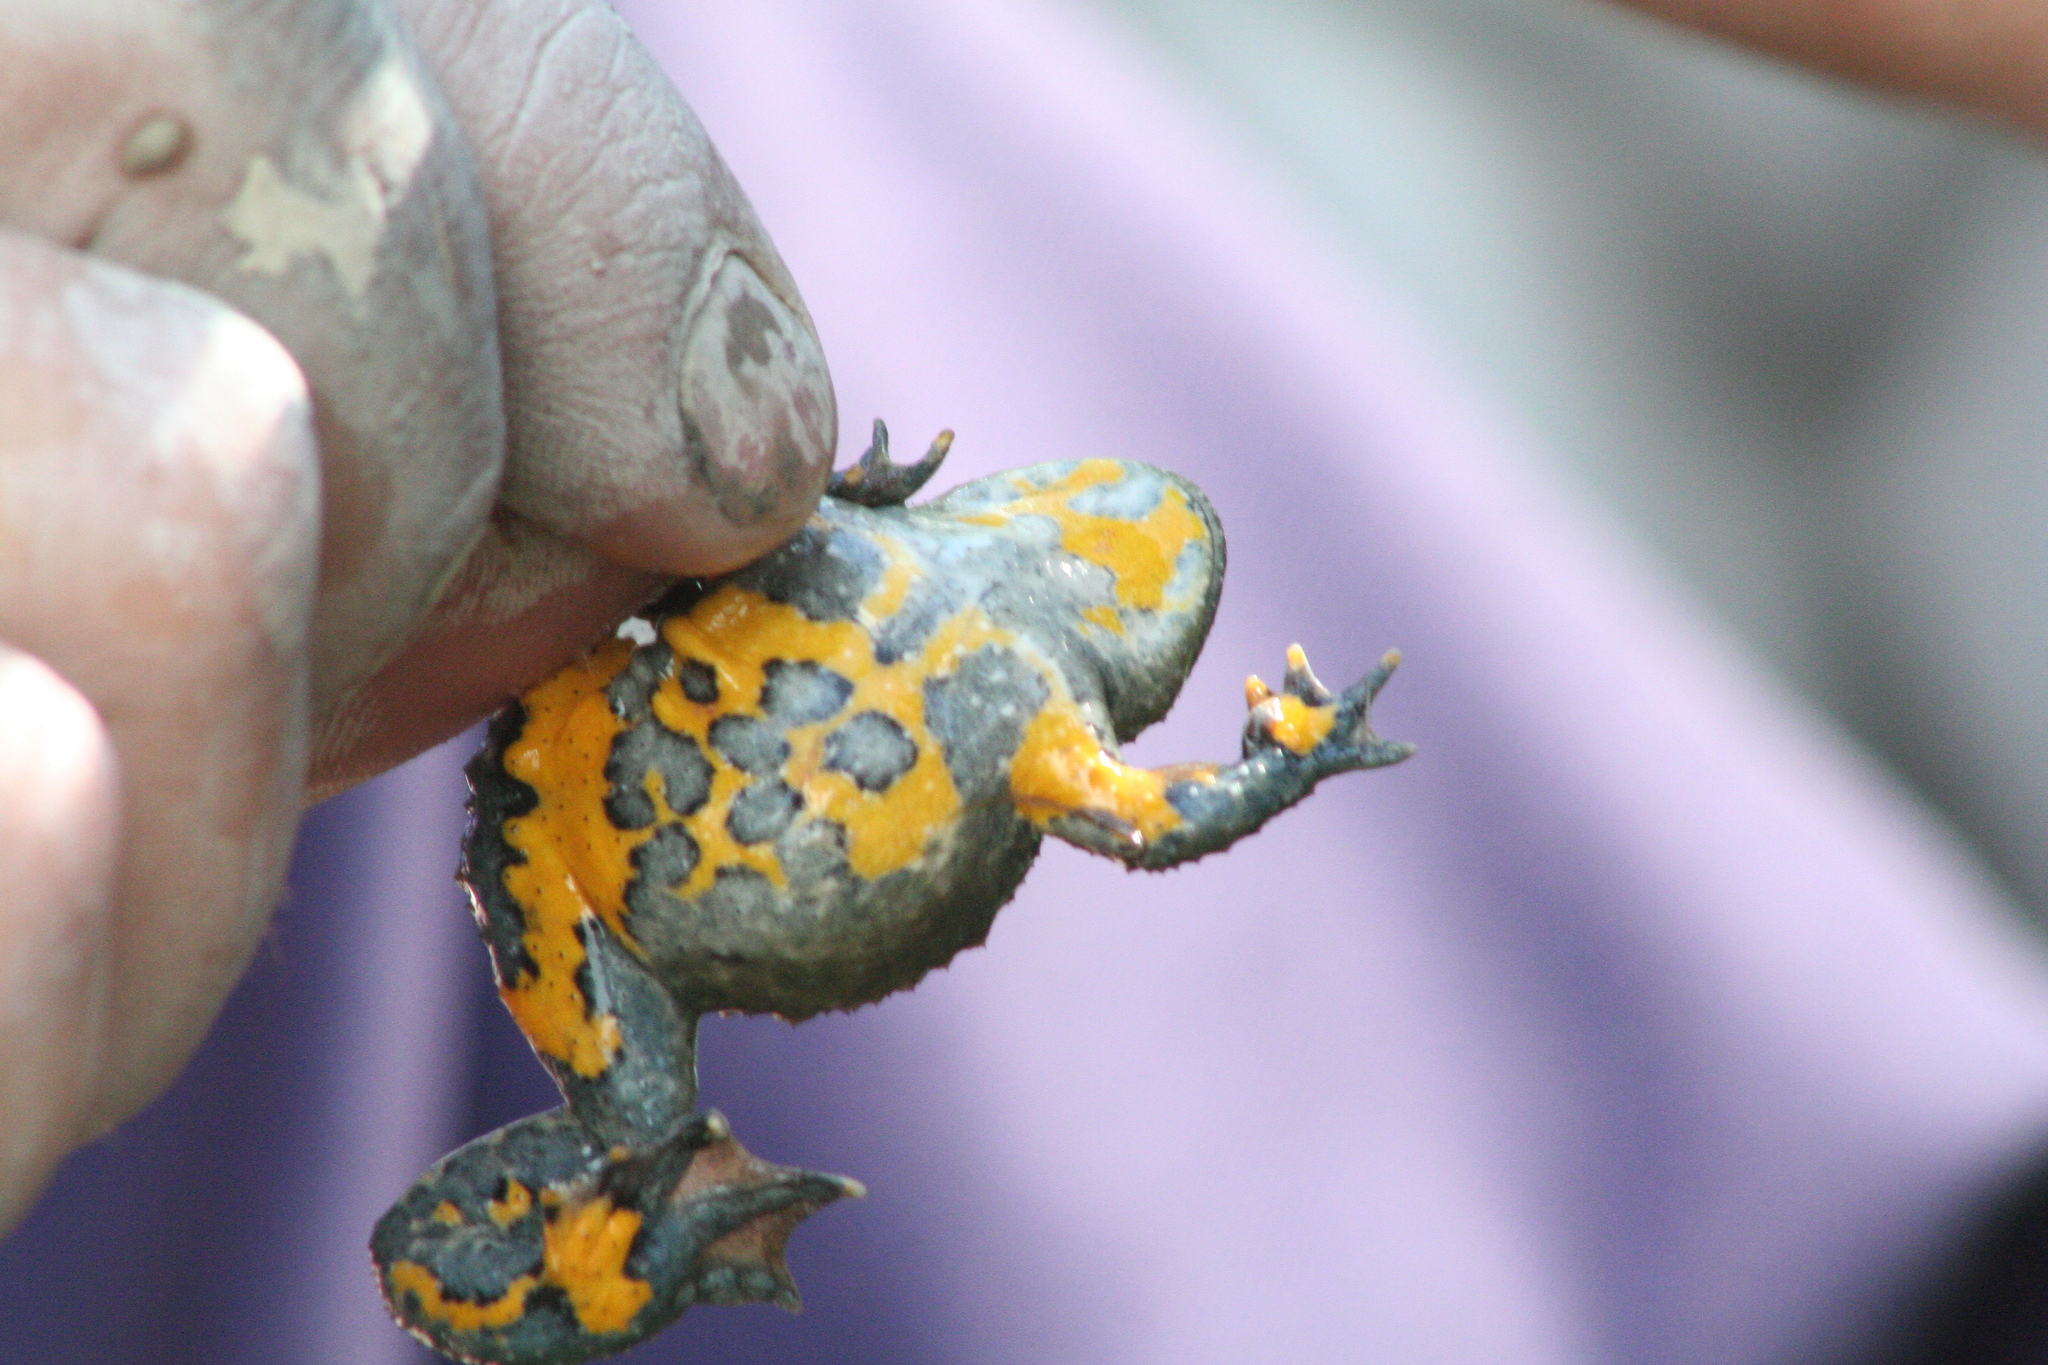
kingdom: Animalia
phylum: Chordata
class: Amphibia
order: Anura
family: Bombinatoridae
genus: Bombina
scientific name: Bombina variegata
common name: Yellow-bellied toad
